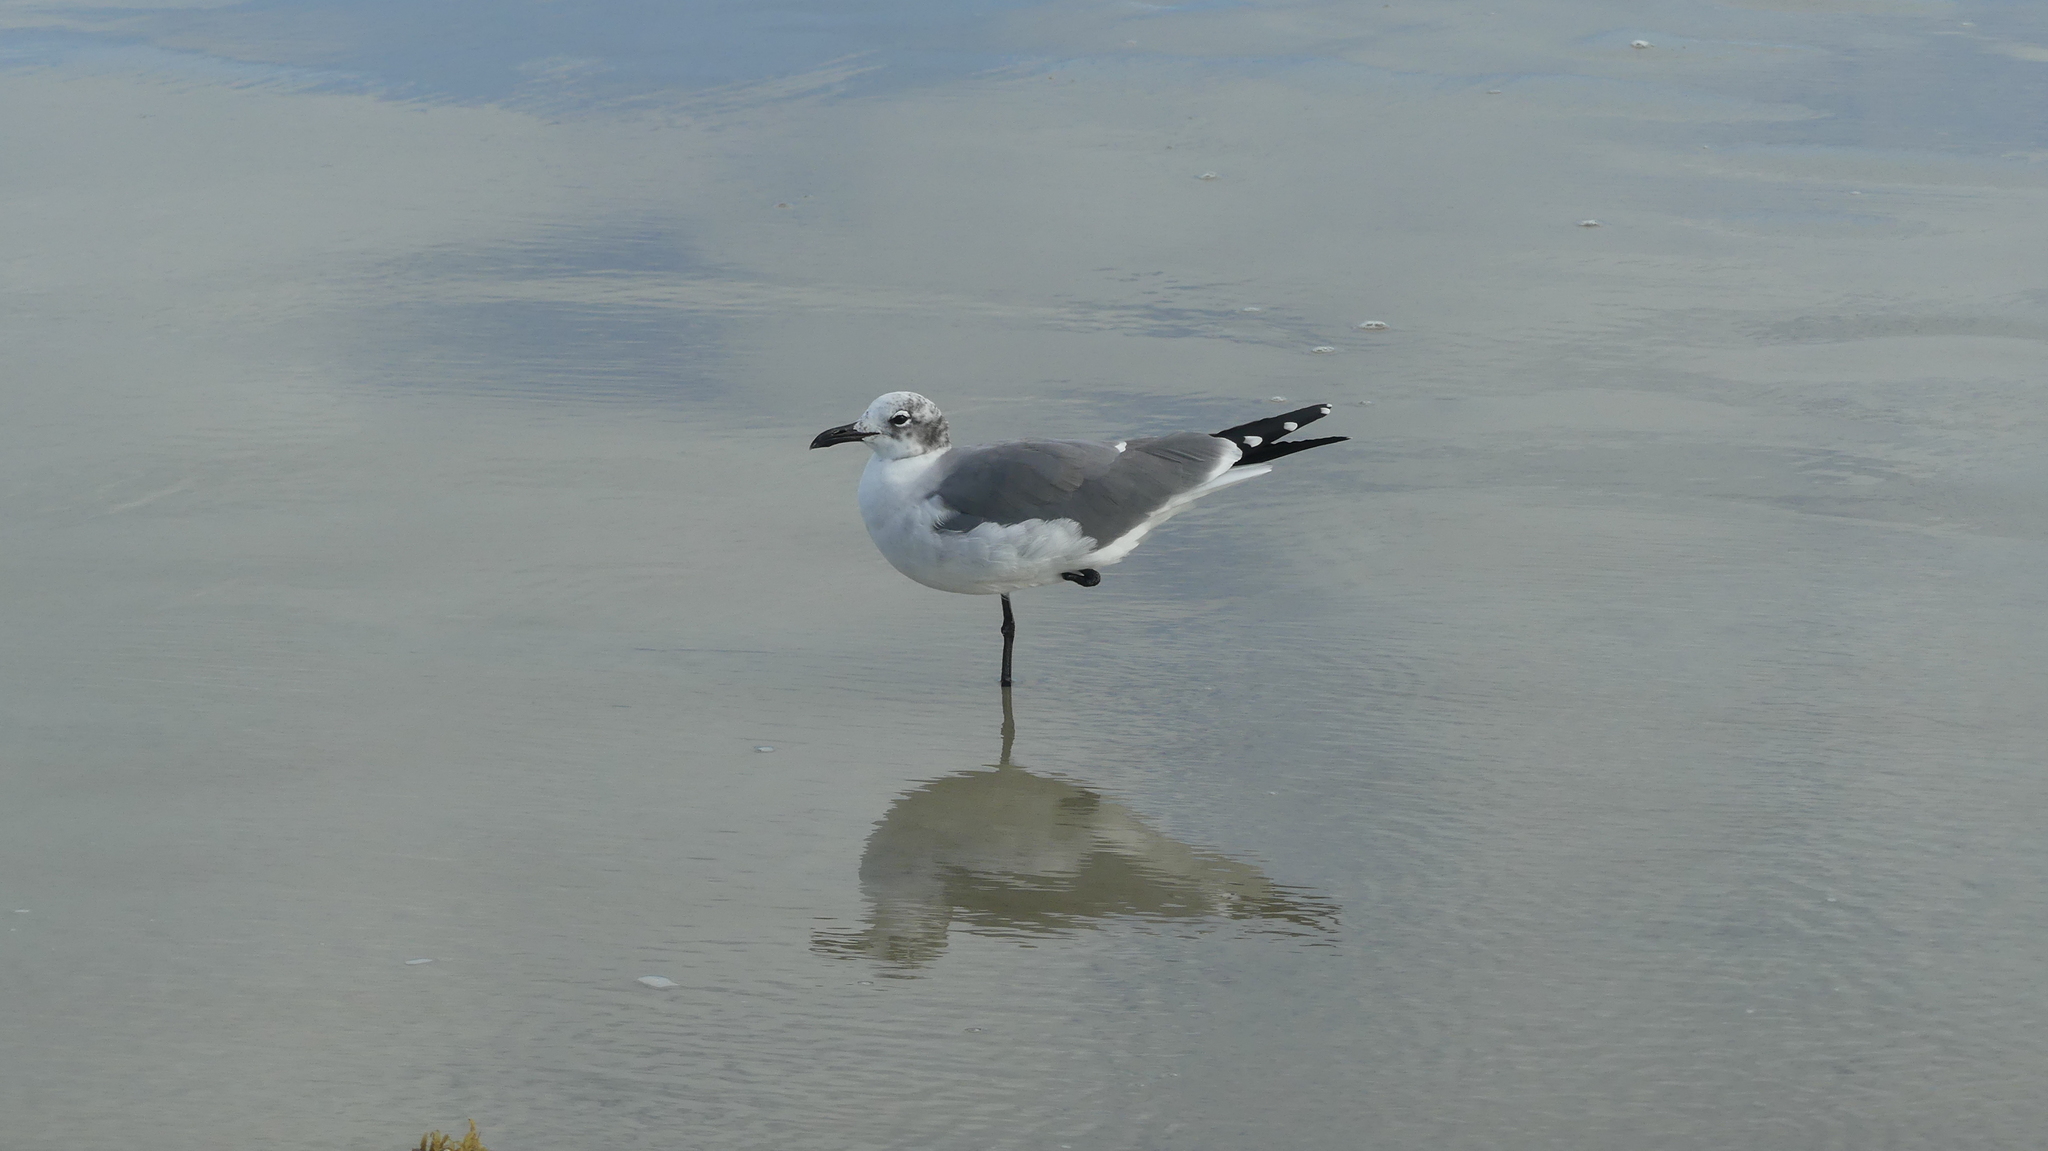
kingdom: Animalia
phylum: Chordata
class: Aves
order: Charadriiformes
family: Laridae
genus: Leucophaeus
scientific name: Leucophaeus atricilla
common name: Laughing gull
